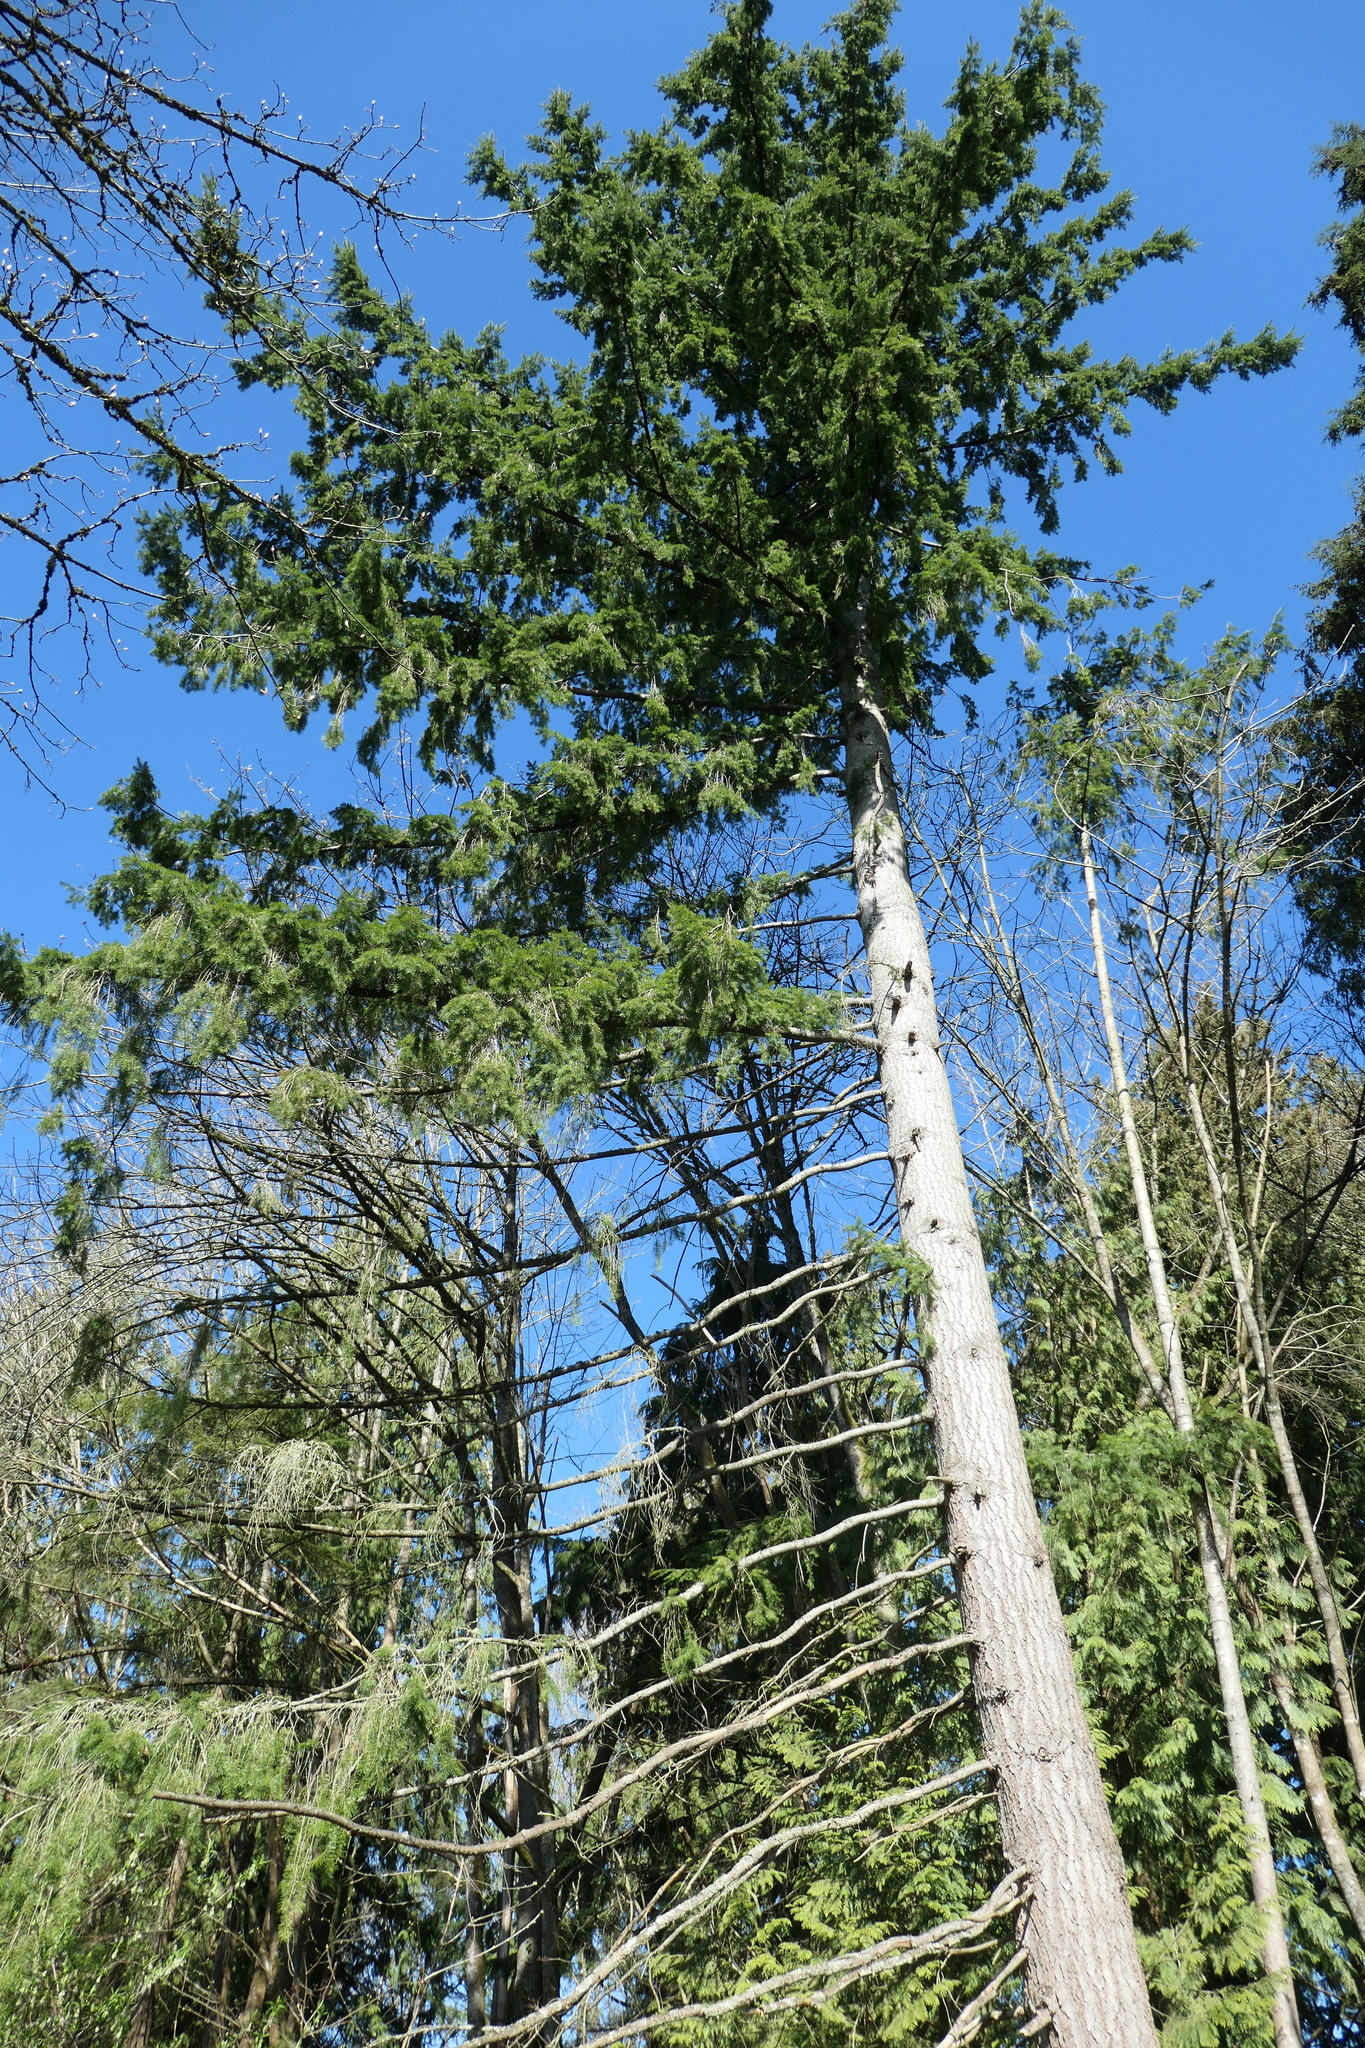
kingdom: Plantae
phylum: Tracheophyta
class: Pinopsida
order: Pinales
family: Pinaceae
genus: Pseudotsuga
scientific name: Pseudotsuga menziesii
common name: Douglas fir
